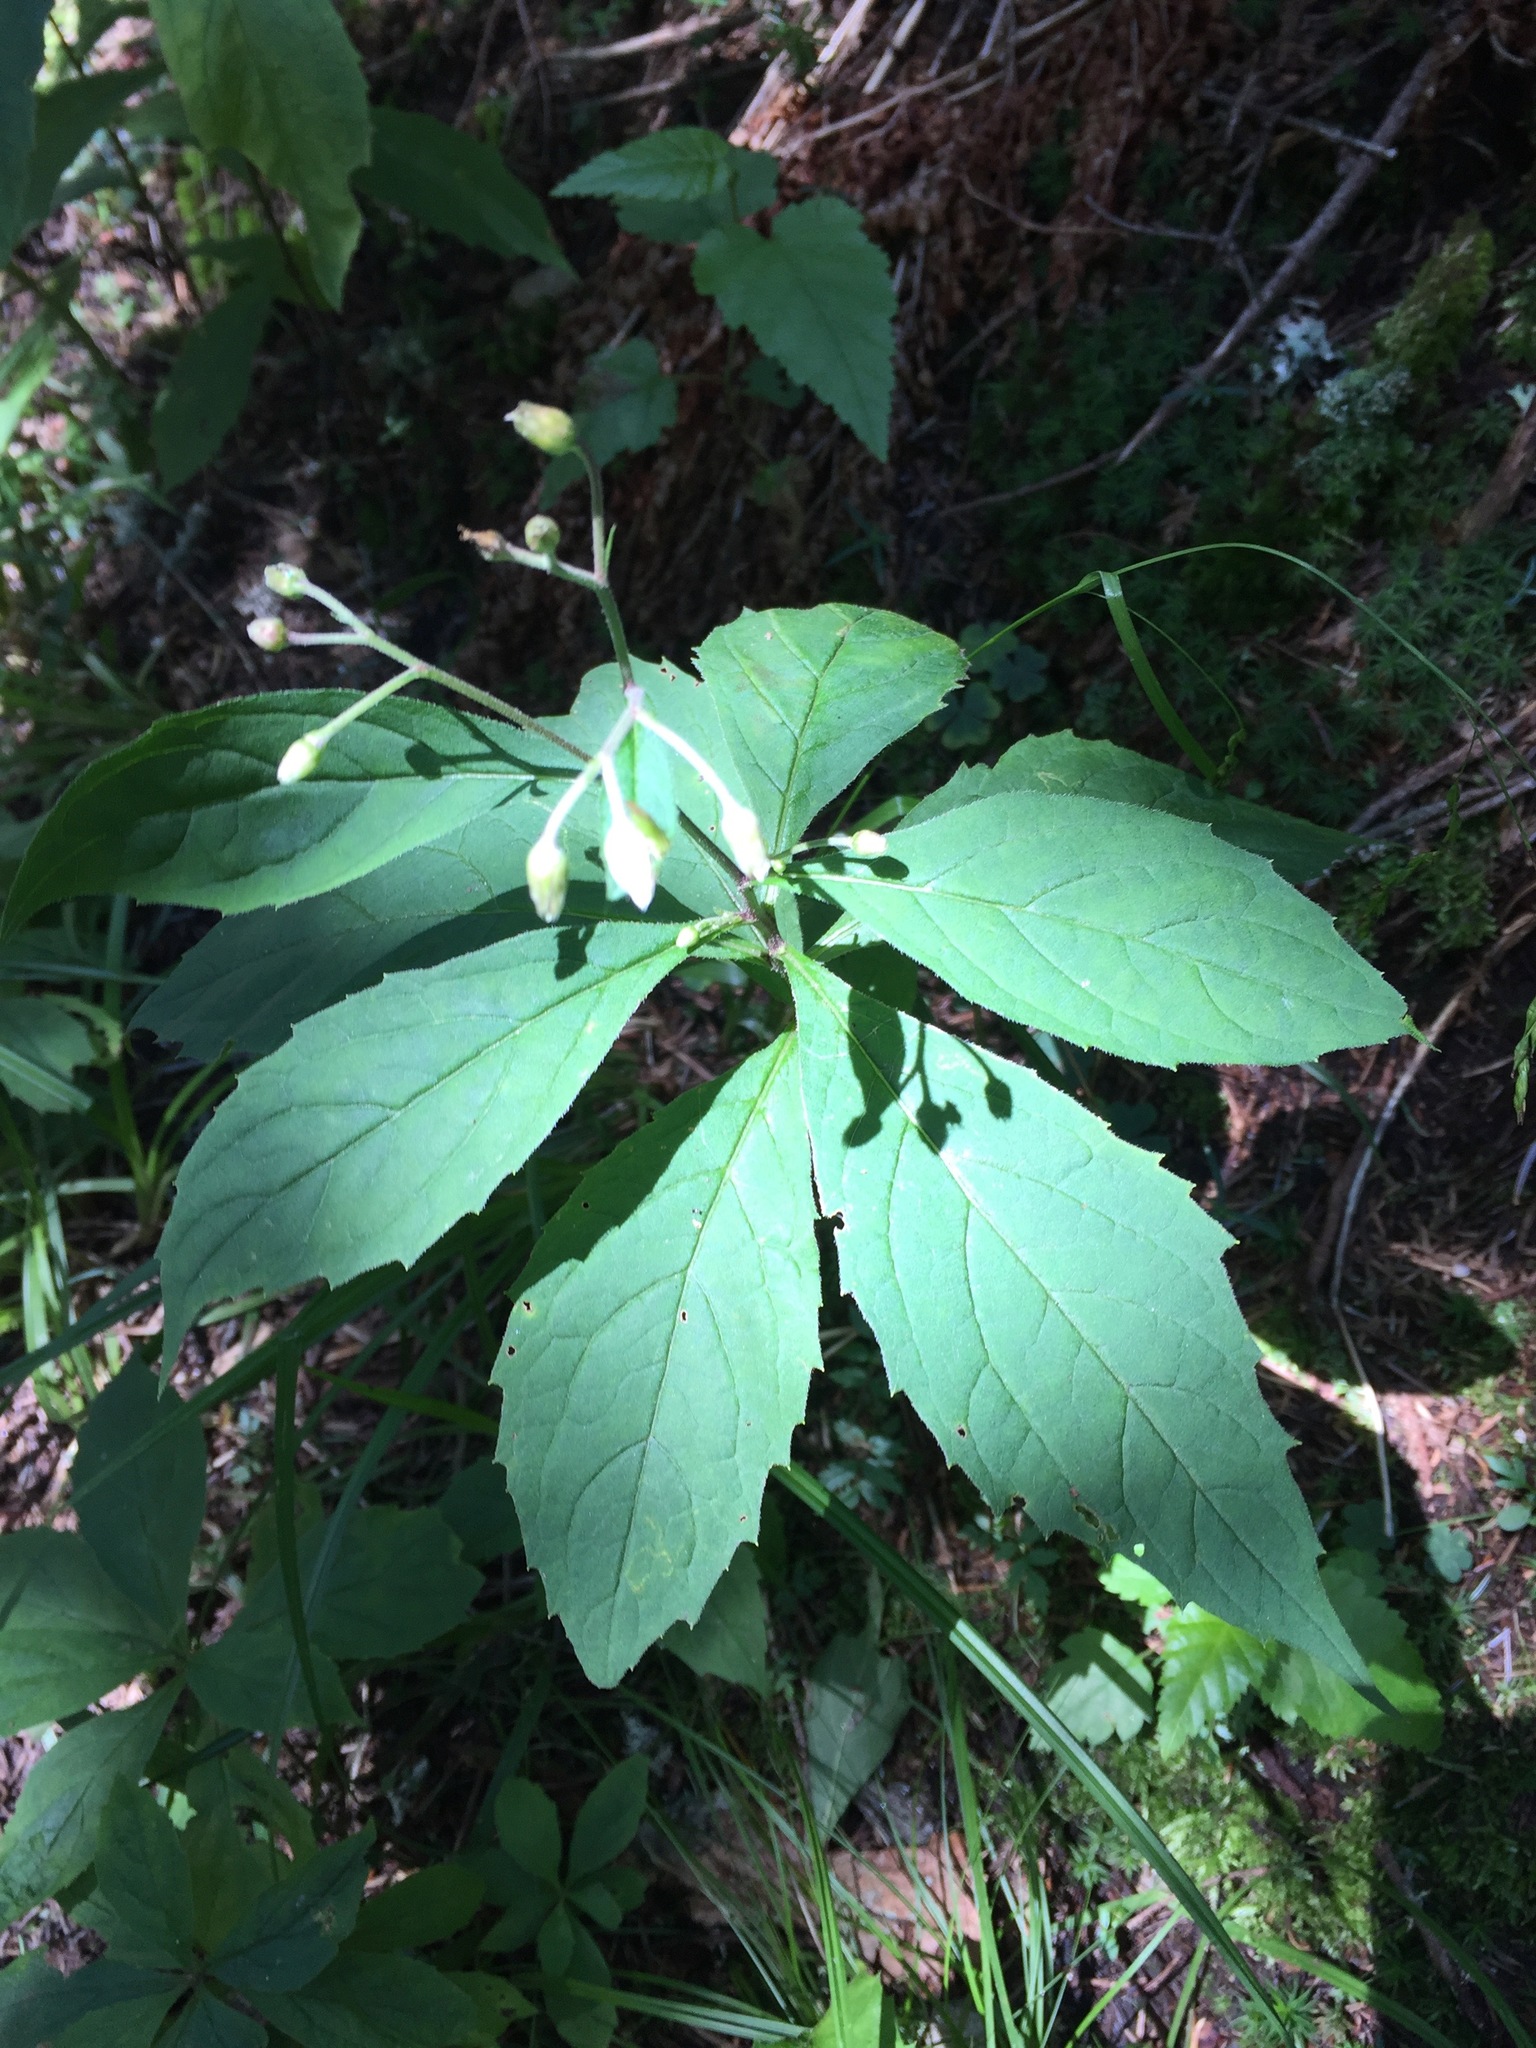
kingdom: Plantae
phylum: Tracheophyta
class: Magnoliopsida
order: Asterales
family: Asteraceae
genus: Oclemena
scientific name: Oclemena acuminata
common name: Mountain aster
